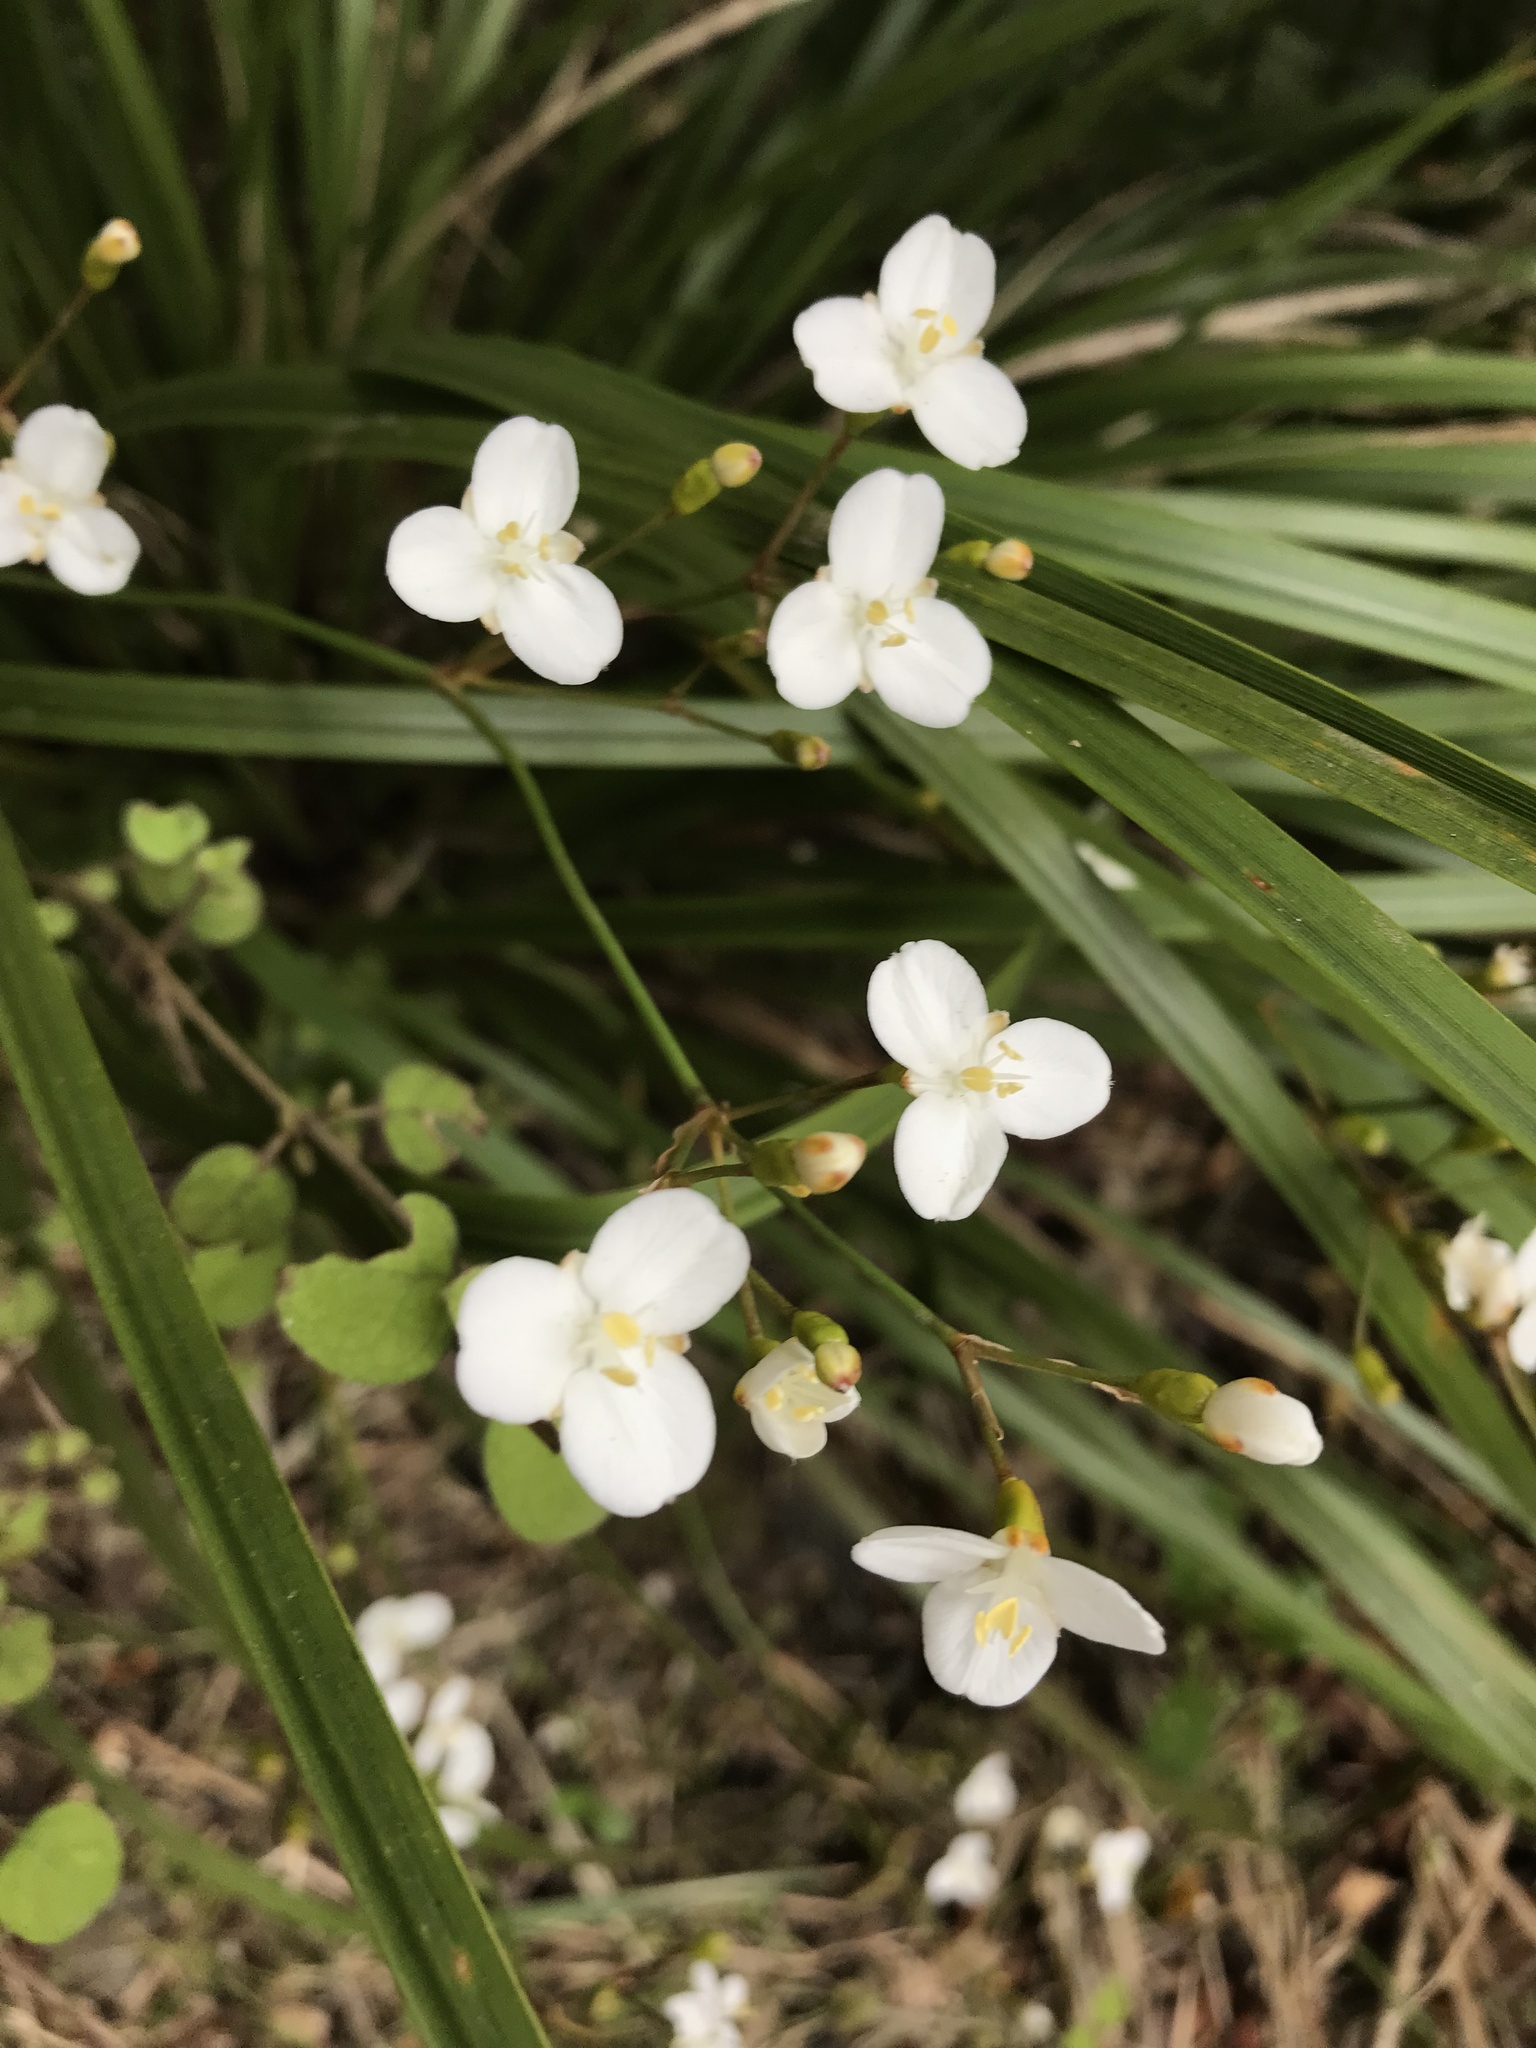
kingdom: Plantae
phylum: Tracheophyta
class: Liliopsida
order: Asparagales
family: Iridaceae
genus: Libertia
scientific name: Libertia ixioides
